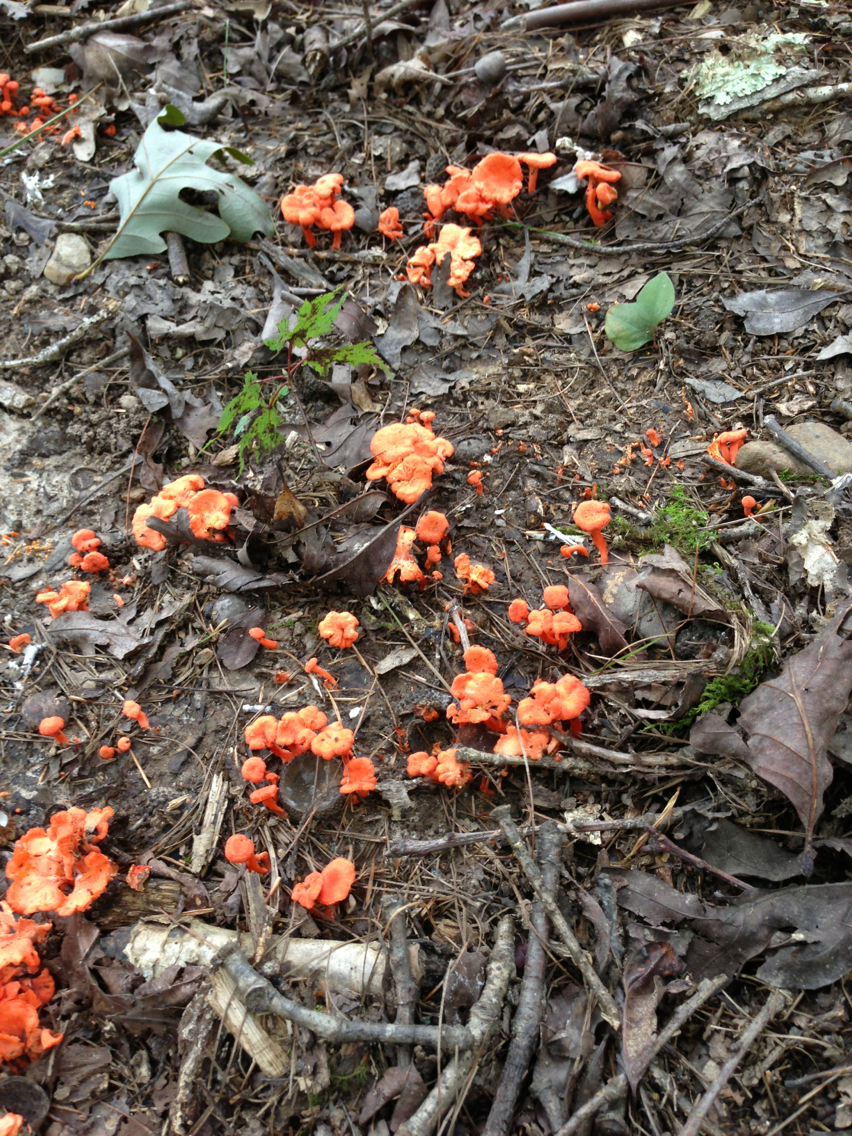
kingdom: Fungi
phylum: Basidiomycota
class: Agaricomycetes
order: Cantharellales
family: Hydnaceae
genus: Cantharellus
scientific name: Cantharellus cinnabarinus
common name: Cinnabar chanterelle
